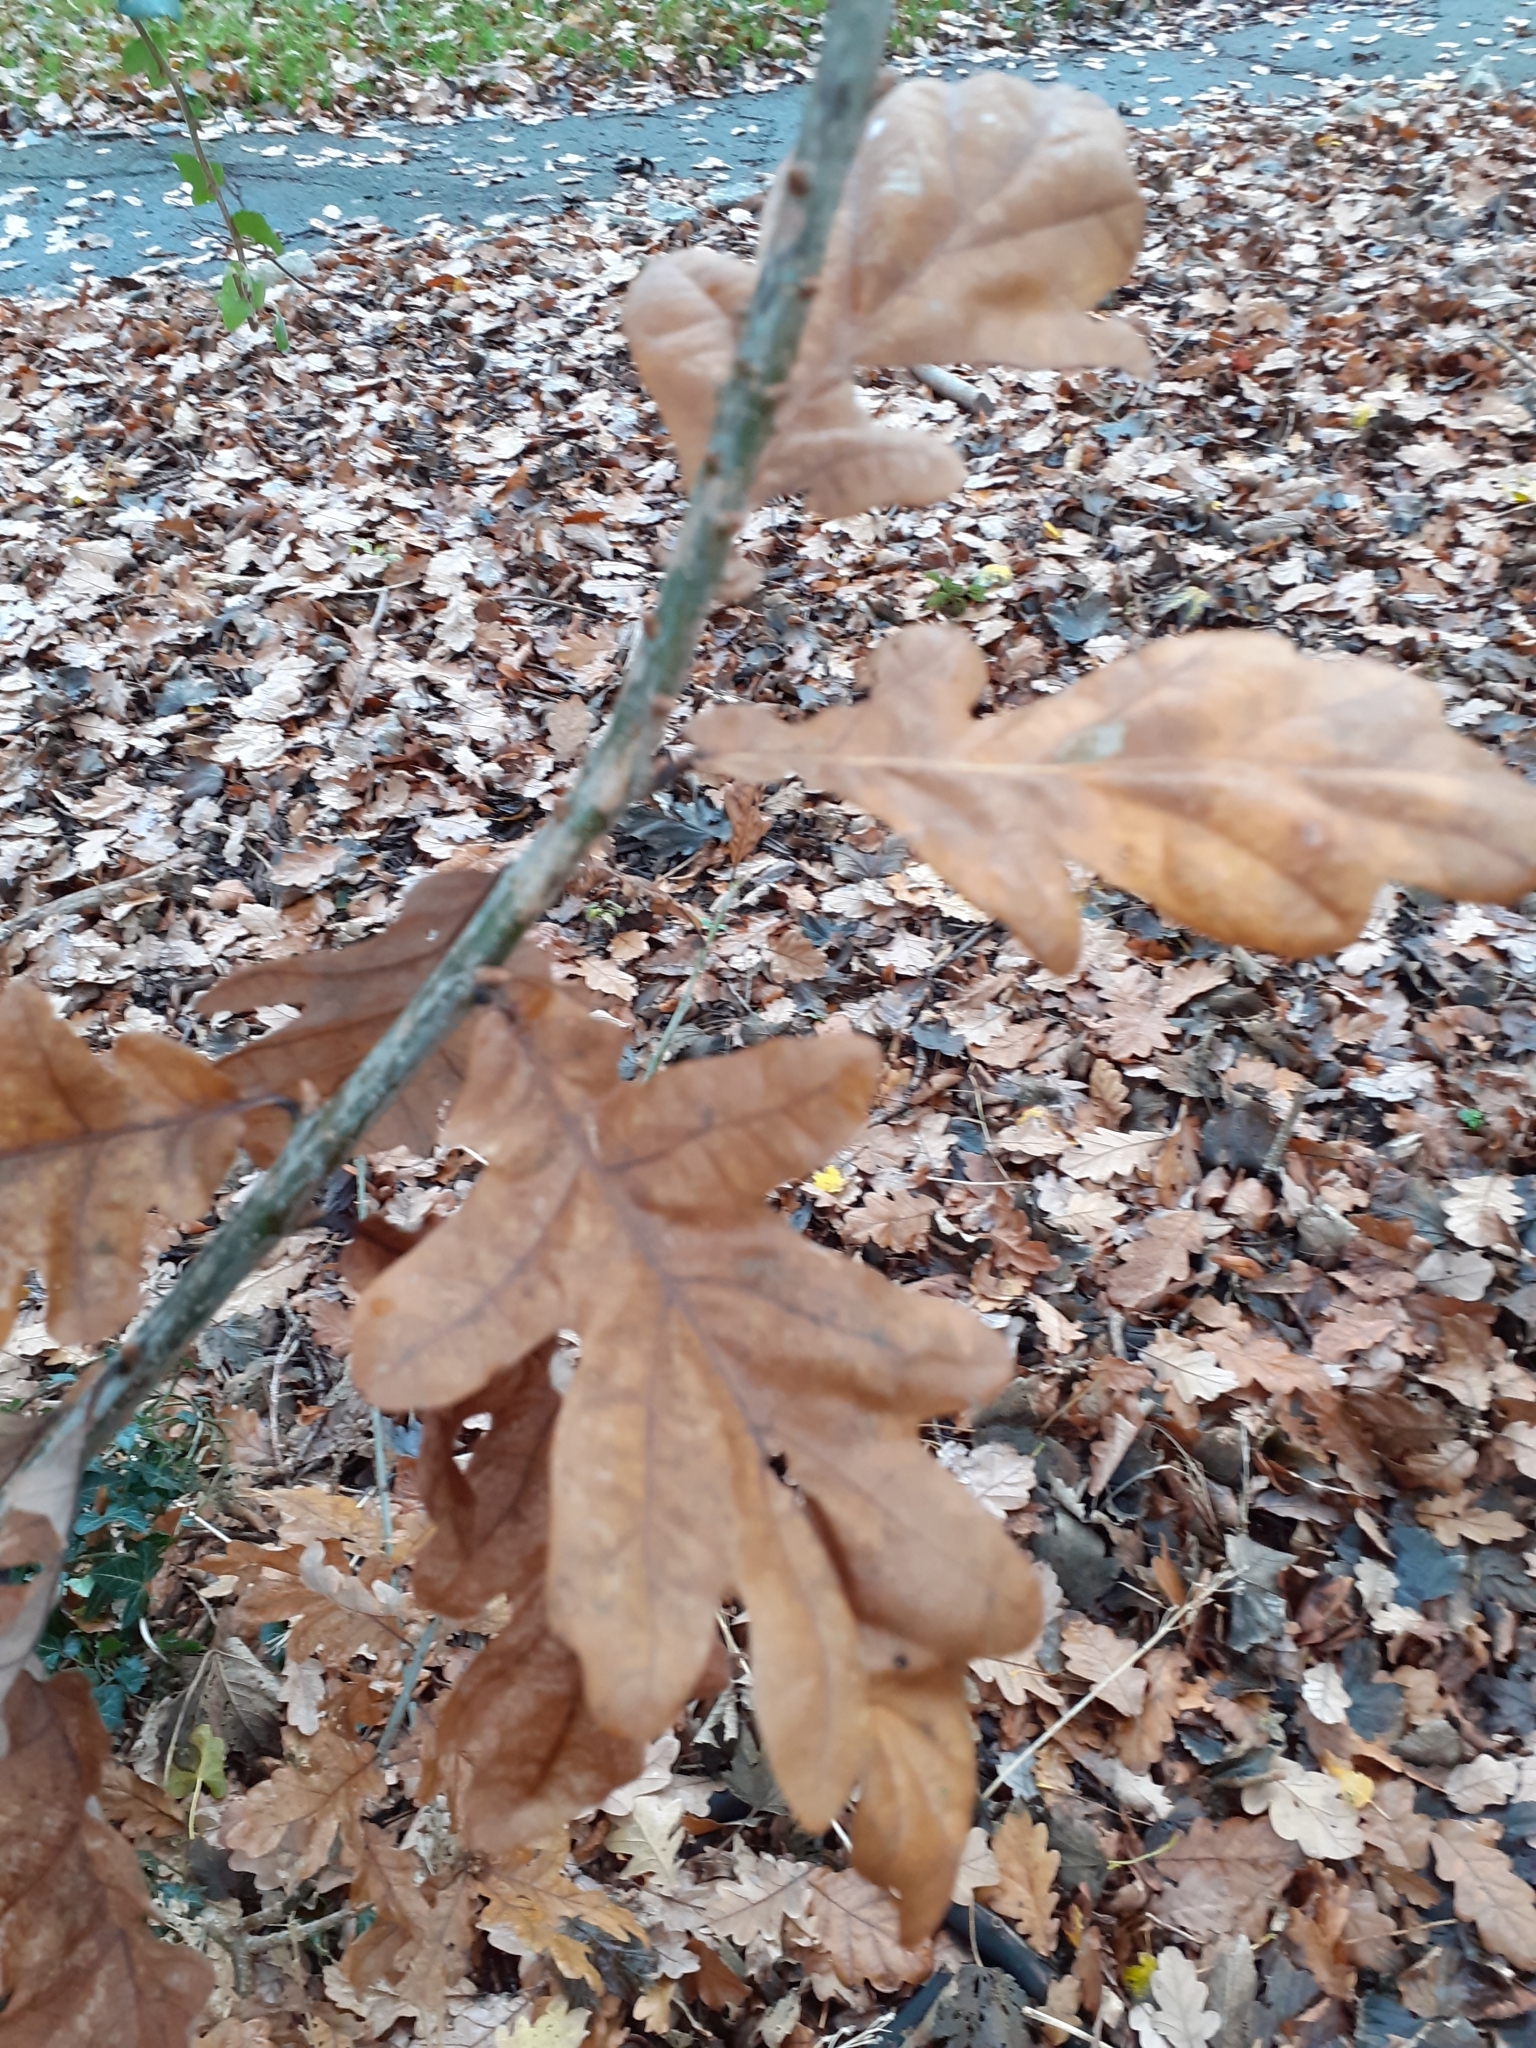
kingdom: Plantae
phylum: Tracheophyta
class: Magnoliopsida
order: Fagales
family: Fagaceae
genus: Quercus
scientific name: Quercus robur
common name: Pedunculate oak
